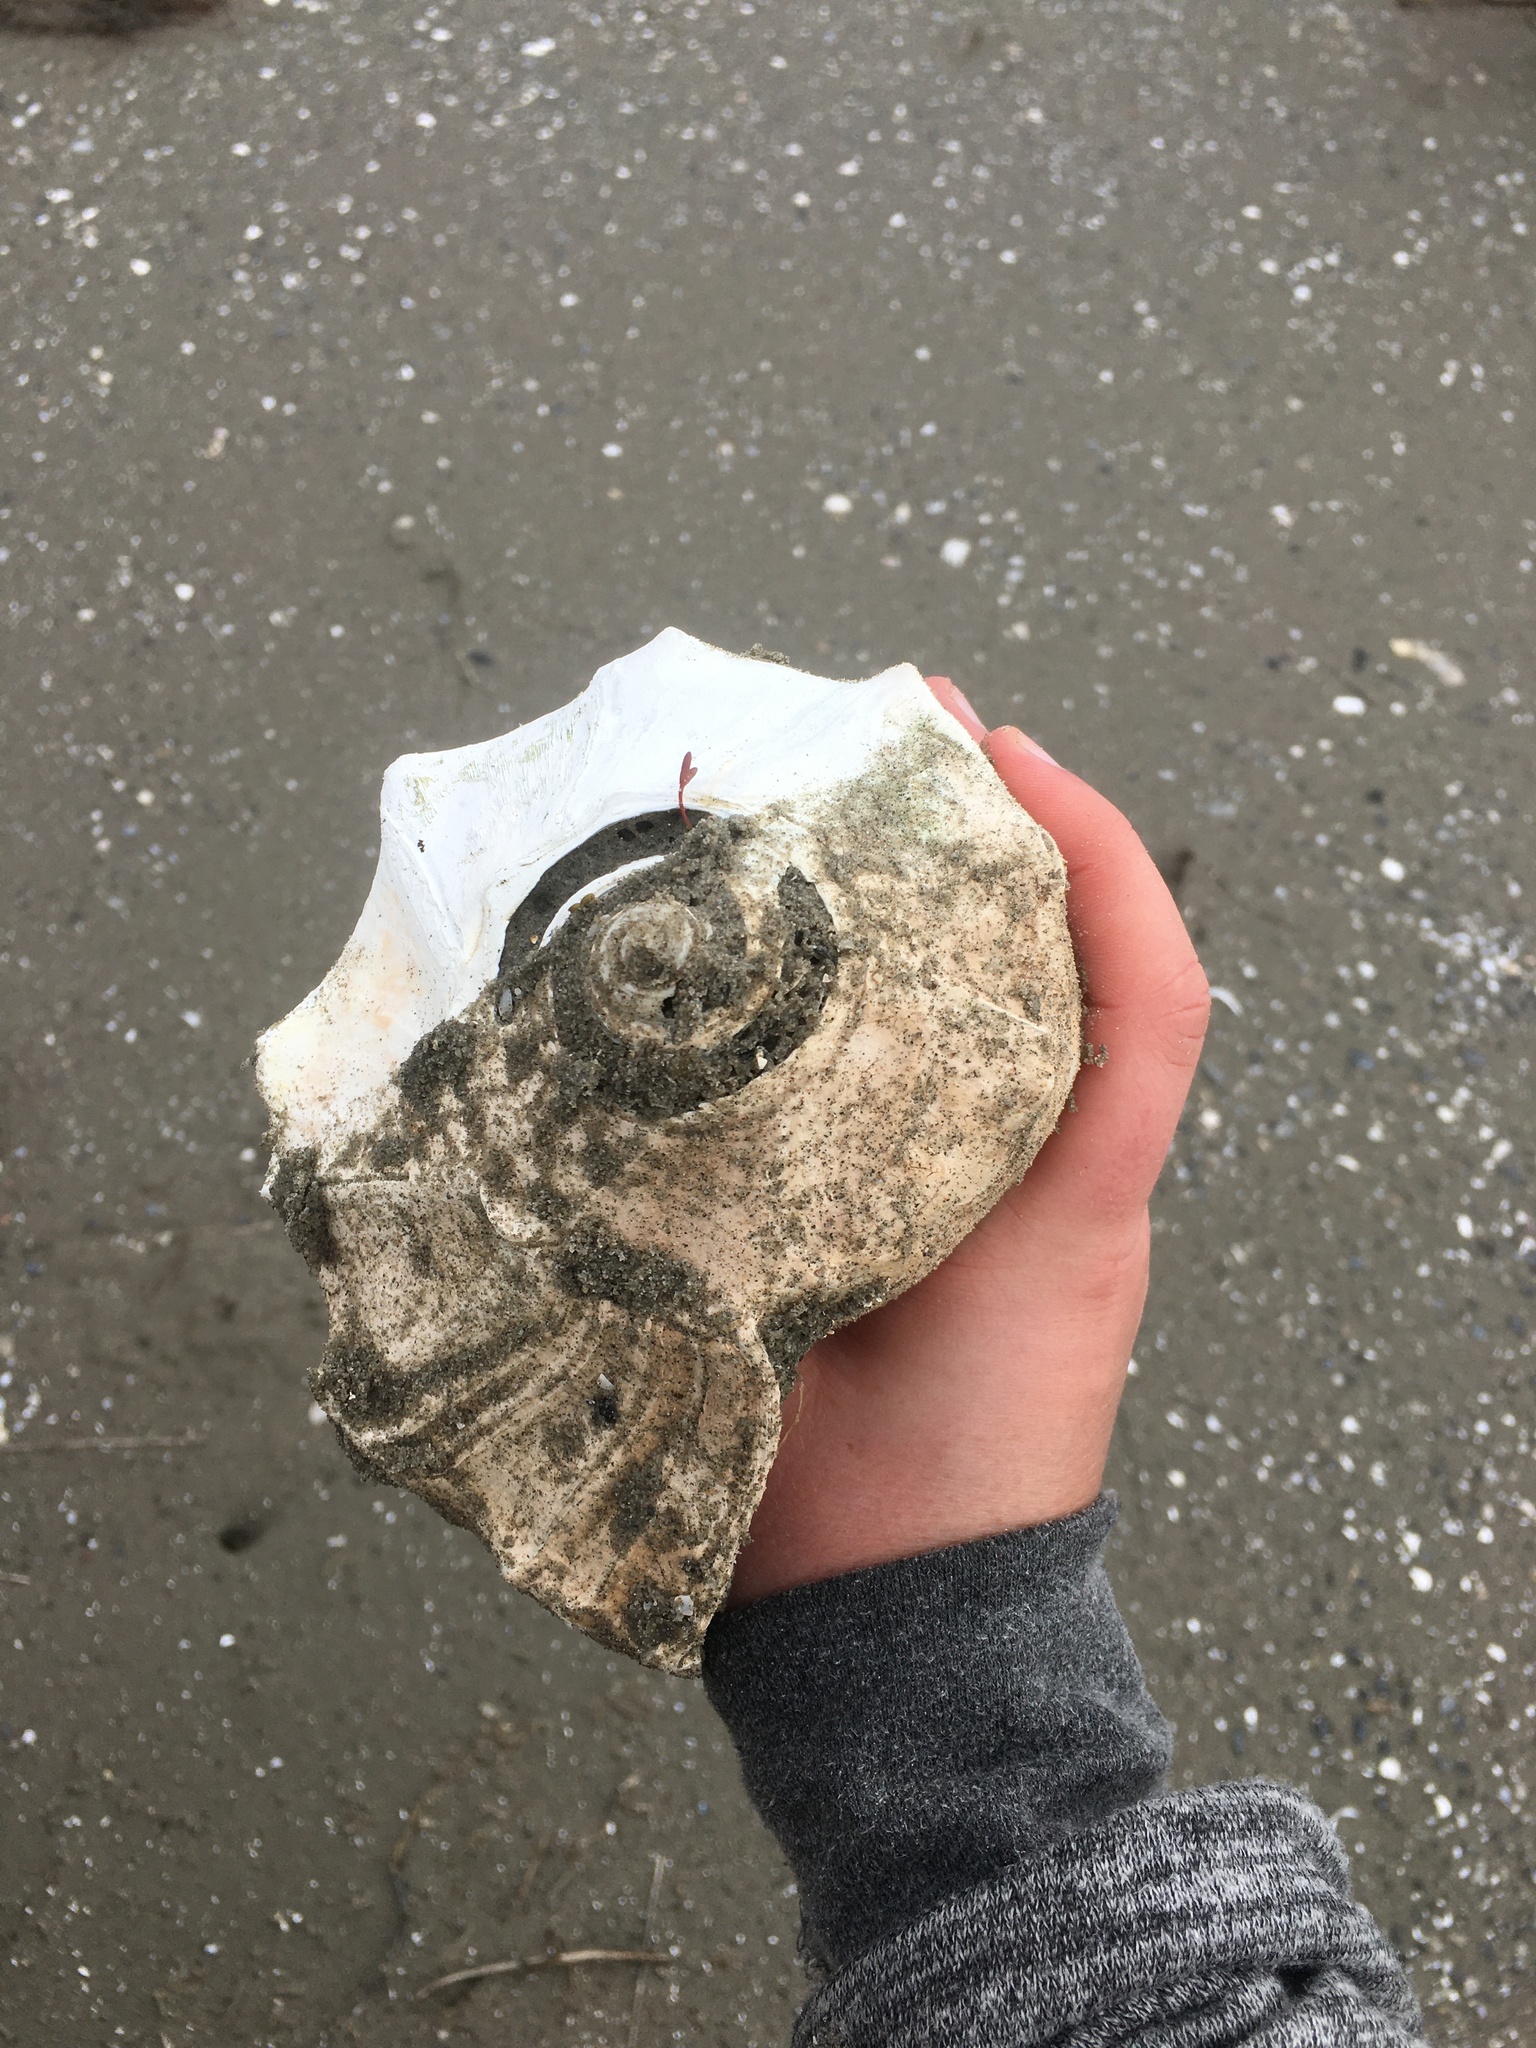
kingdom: Animalia
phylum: Mollusca
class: Gastropoda
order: Neogastropoda
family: Busyconidae
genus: Sinistrofulgur
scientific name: Sinistrofulgur sinistrum
